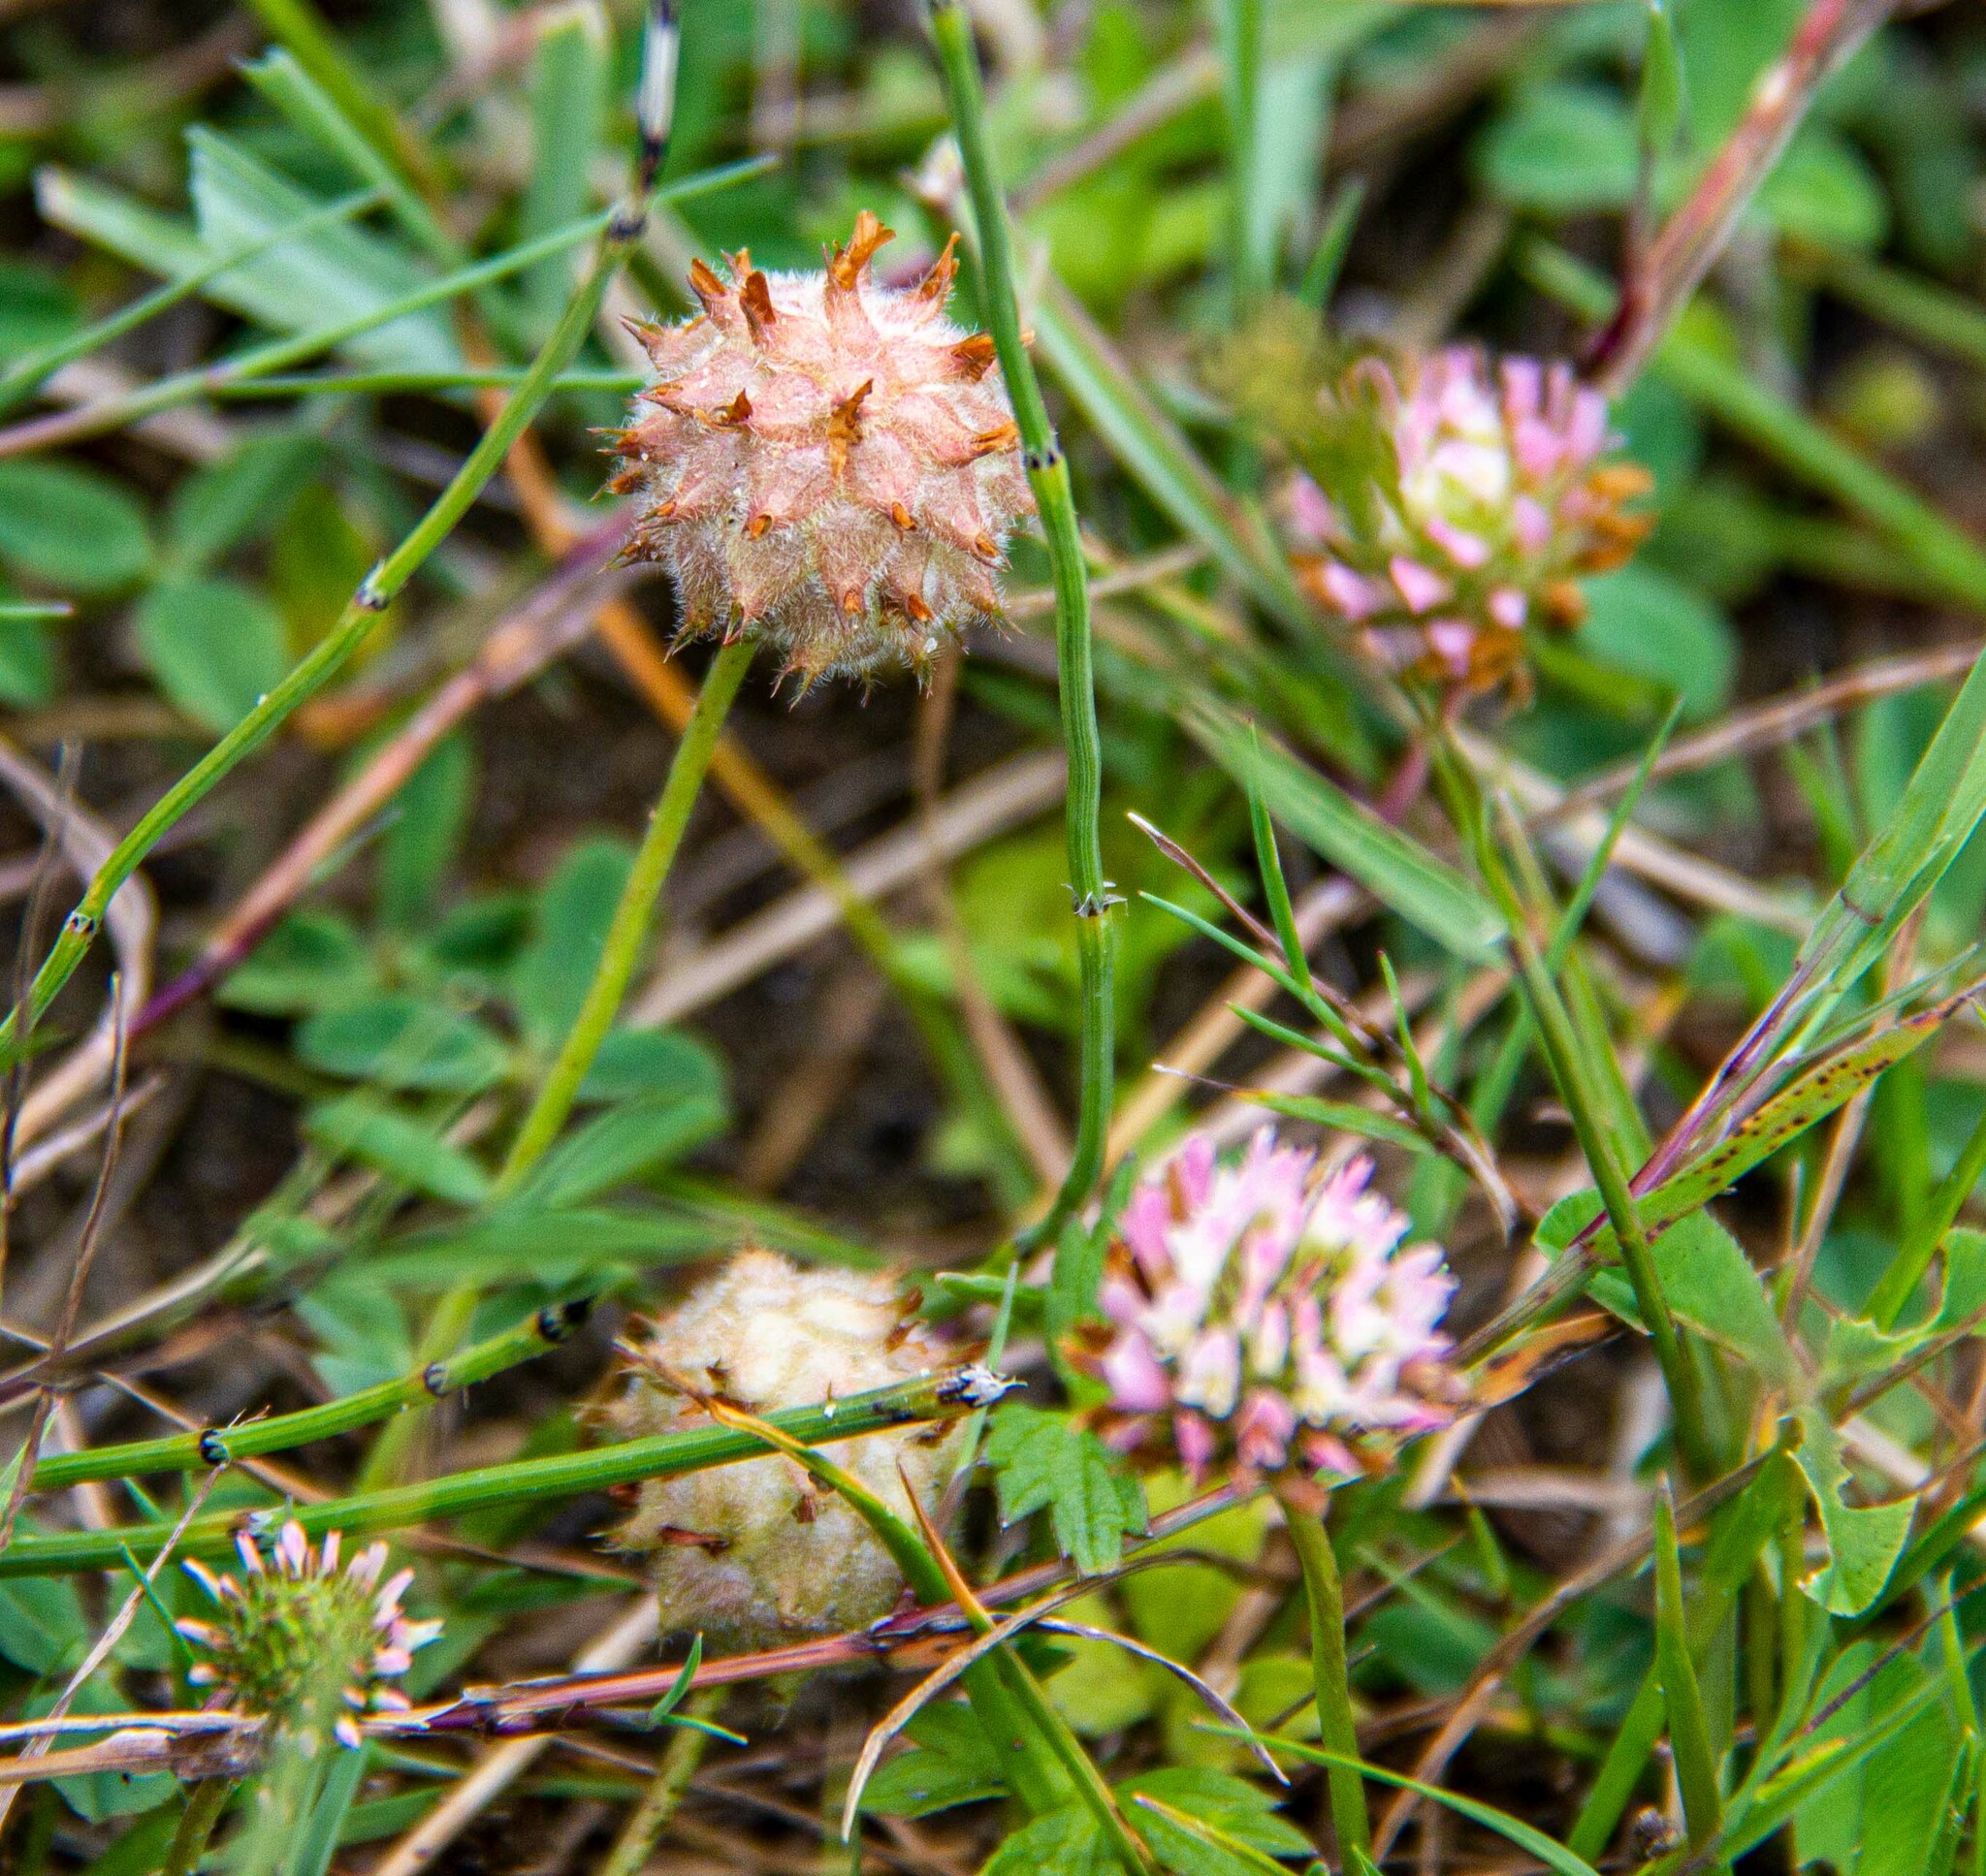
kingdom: Plantae
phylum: Tracheophyta
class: Magnoliopsida
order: Fabales
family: Fabaceae
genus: Trifolium
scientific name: Trifolium fragiferum
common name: Strawberry clover
